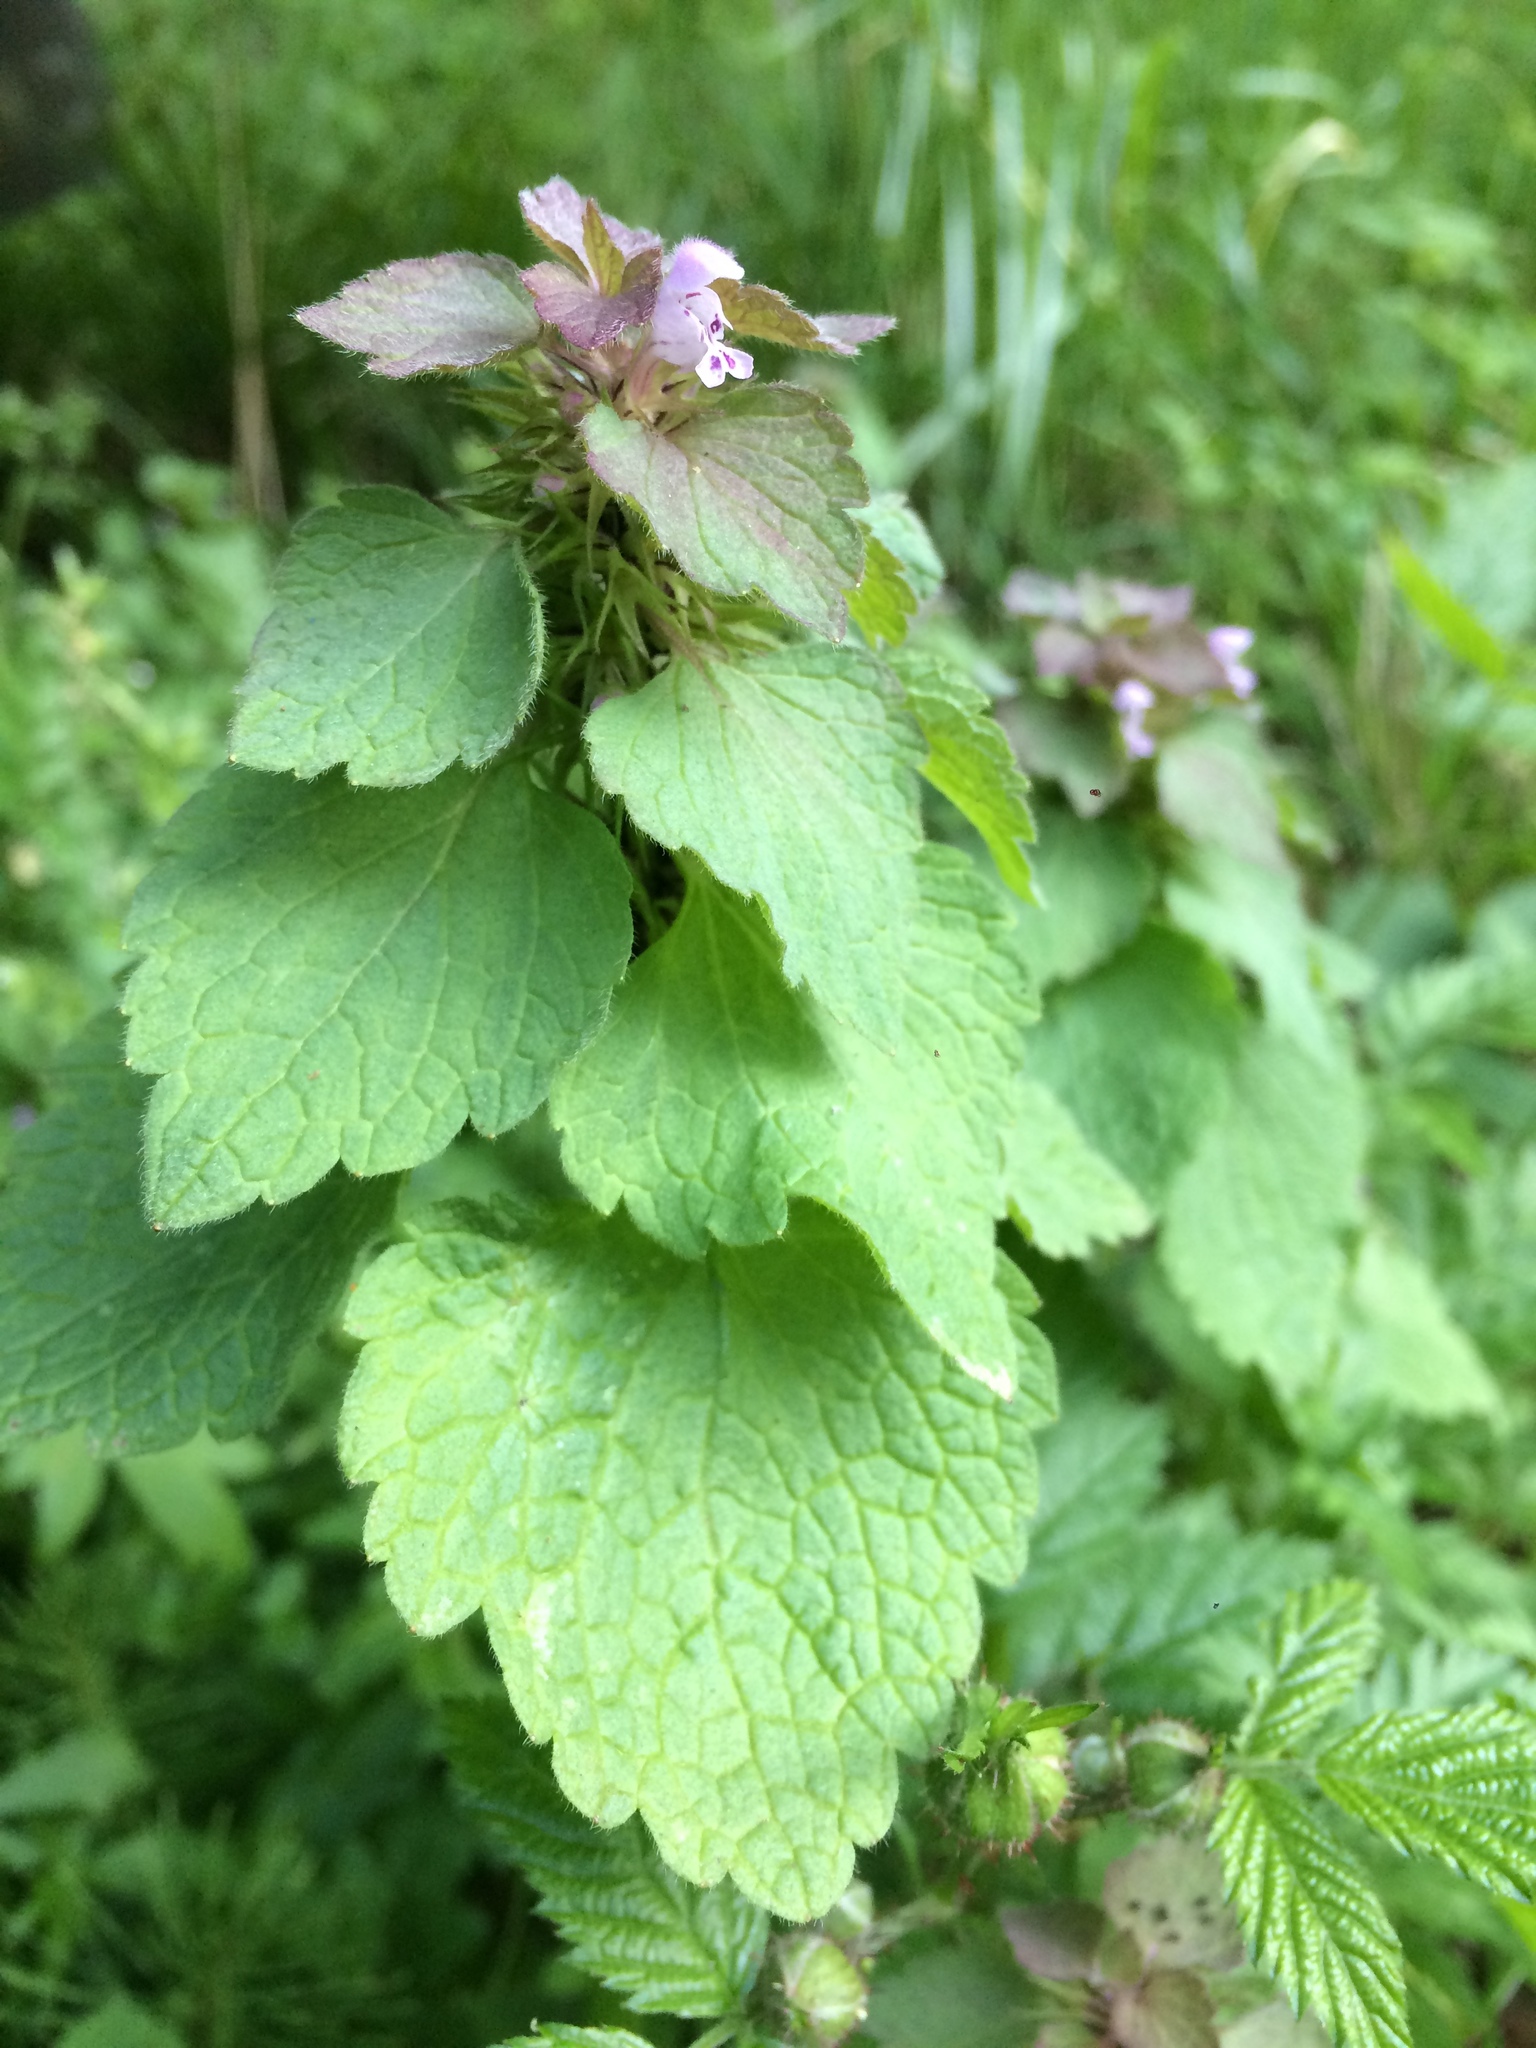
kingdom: Plantae
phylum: Tracheophyta
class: Magnoliopsida
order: Lamiales
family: Lamiaceae
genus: Lamium
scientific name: Lamium purpureum
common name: Red dead-nettle
